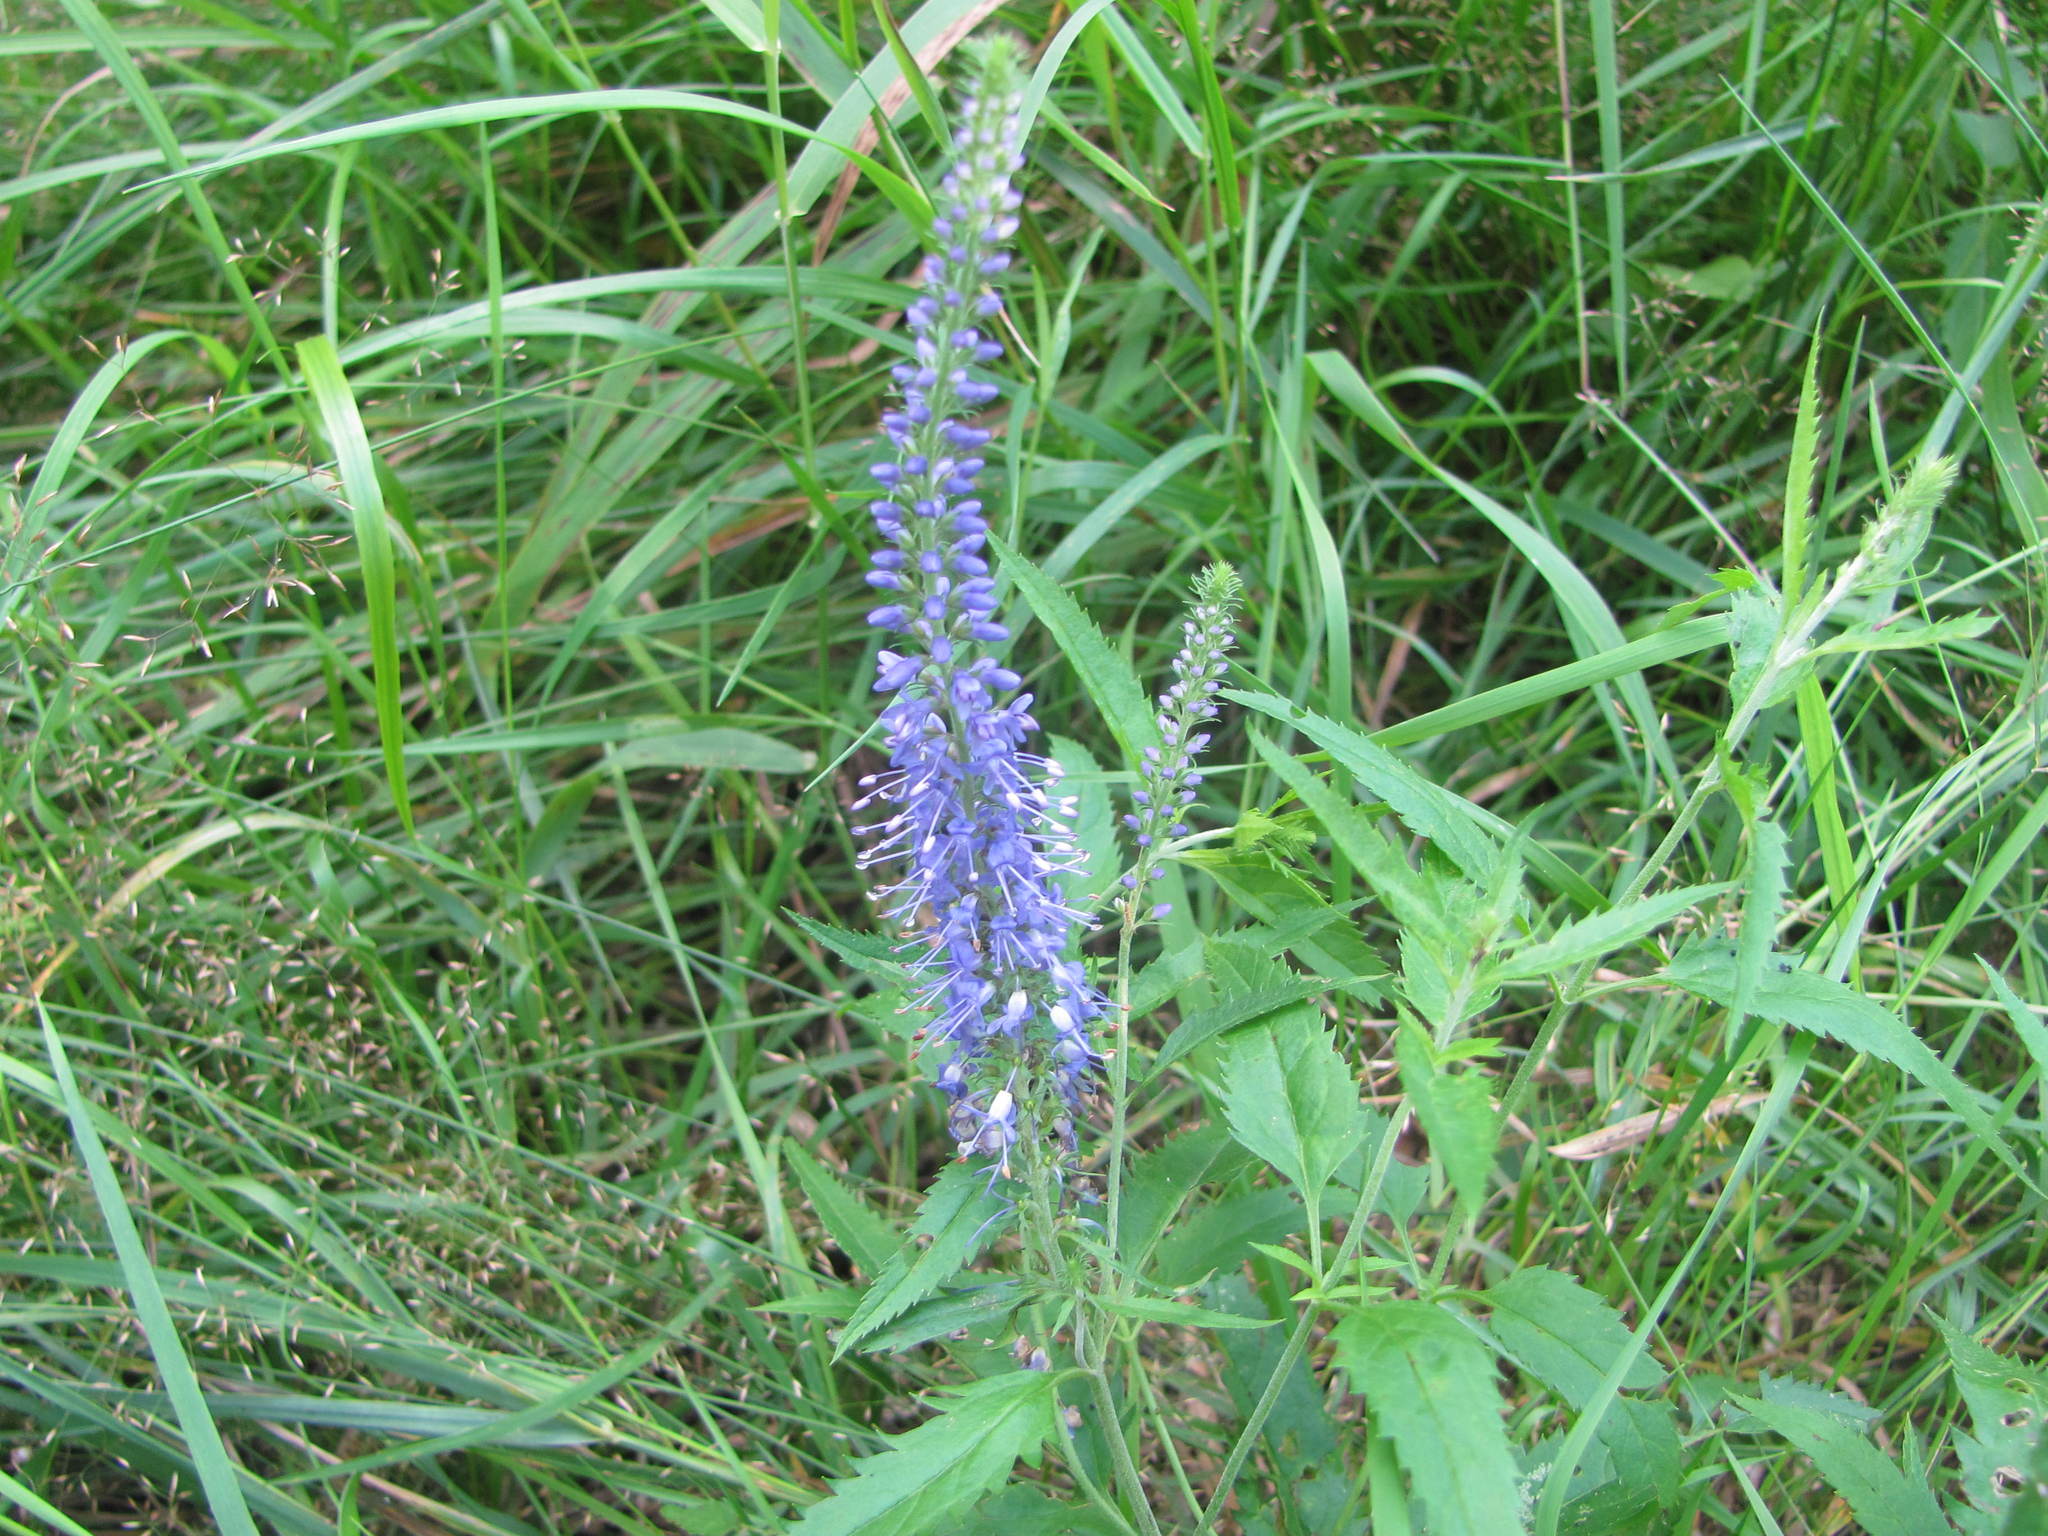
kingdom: Plantae
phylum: Tracheophyta
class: Magnoliopsida
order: Lamiales
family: Plantaginaceae
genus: Veronica
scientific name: Veronica longifolia
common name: Garden speedwell
